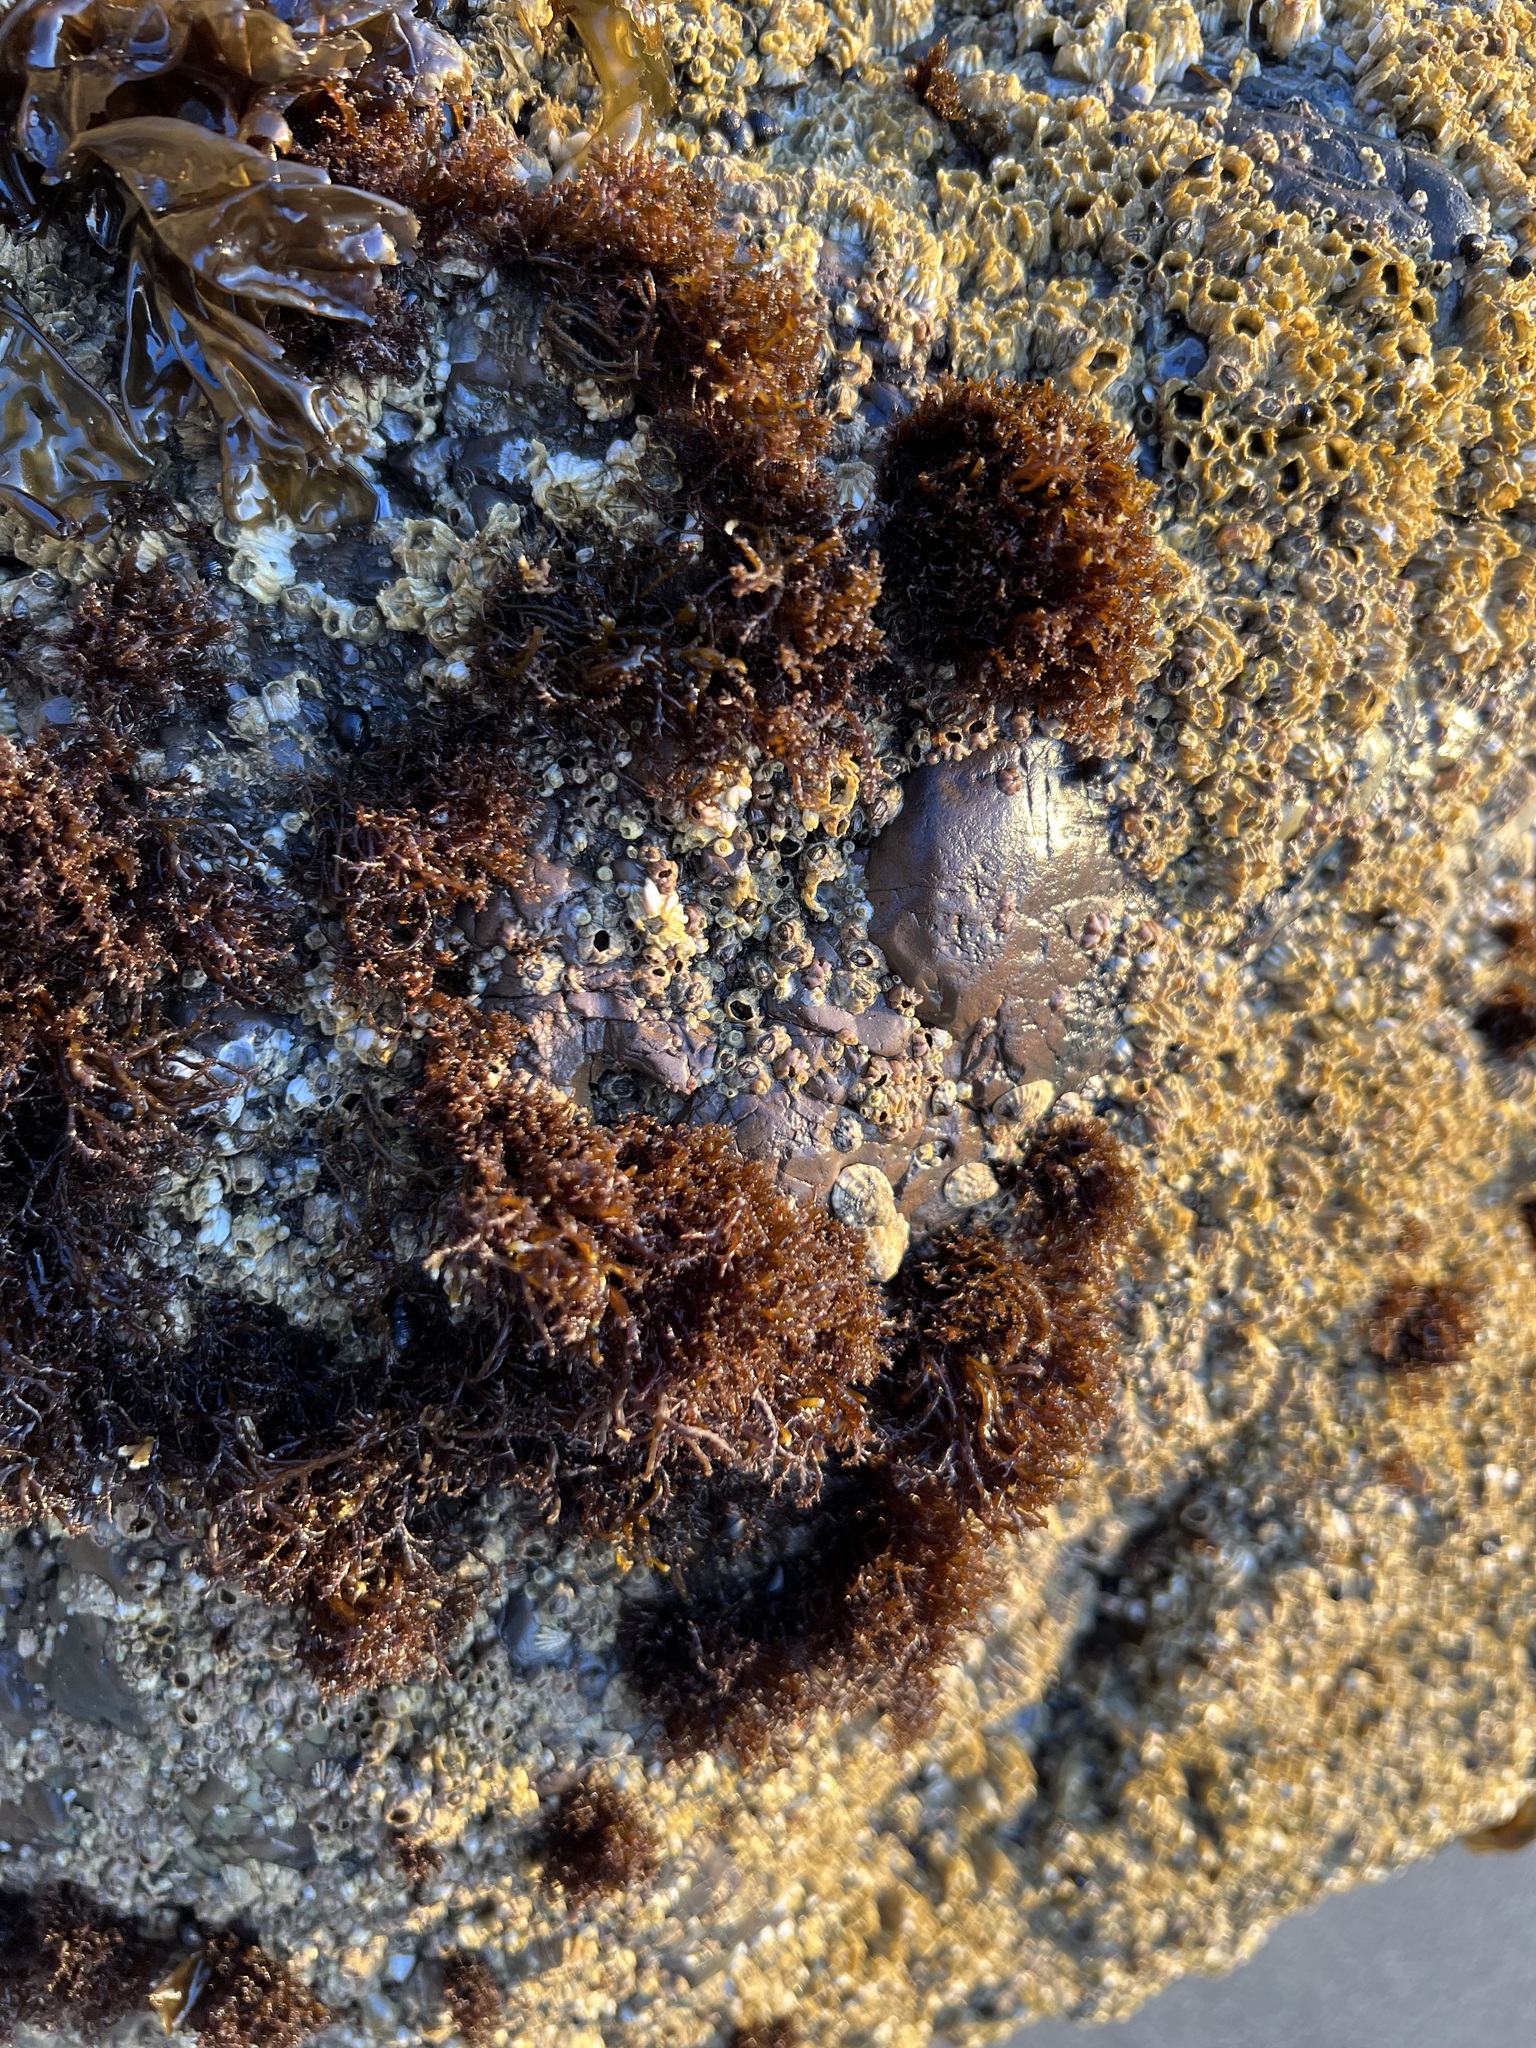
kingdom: Plantae
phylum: Rhodophyta
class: Florideophyceae
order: Gigartinales
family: Endocladiaceae
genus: Endocladia
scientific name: Endocladia muricata
